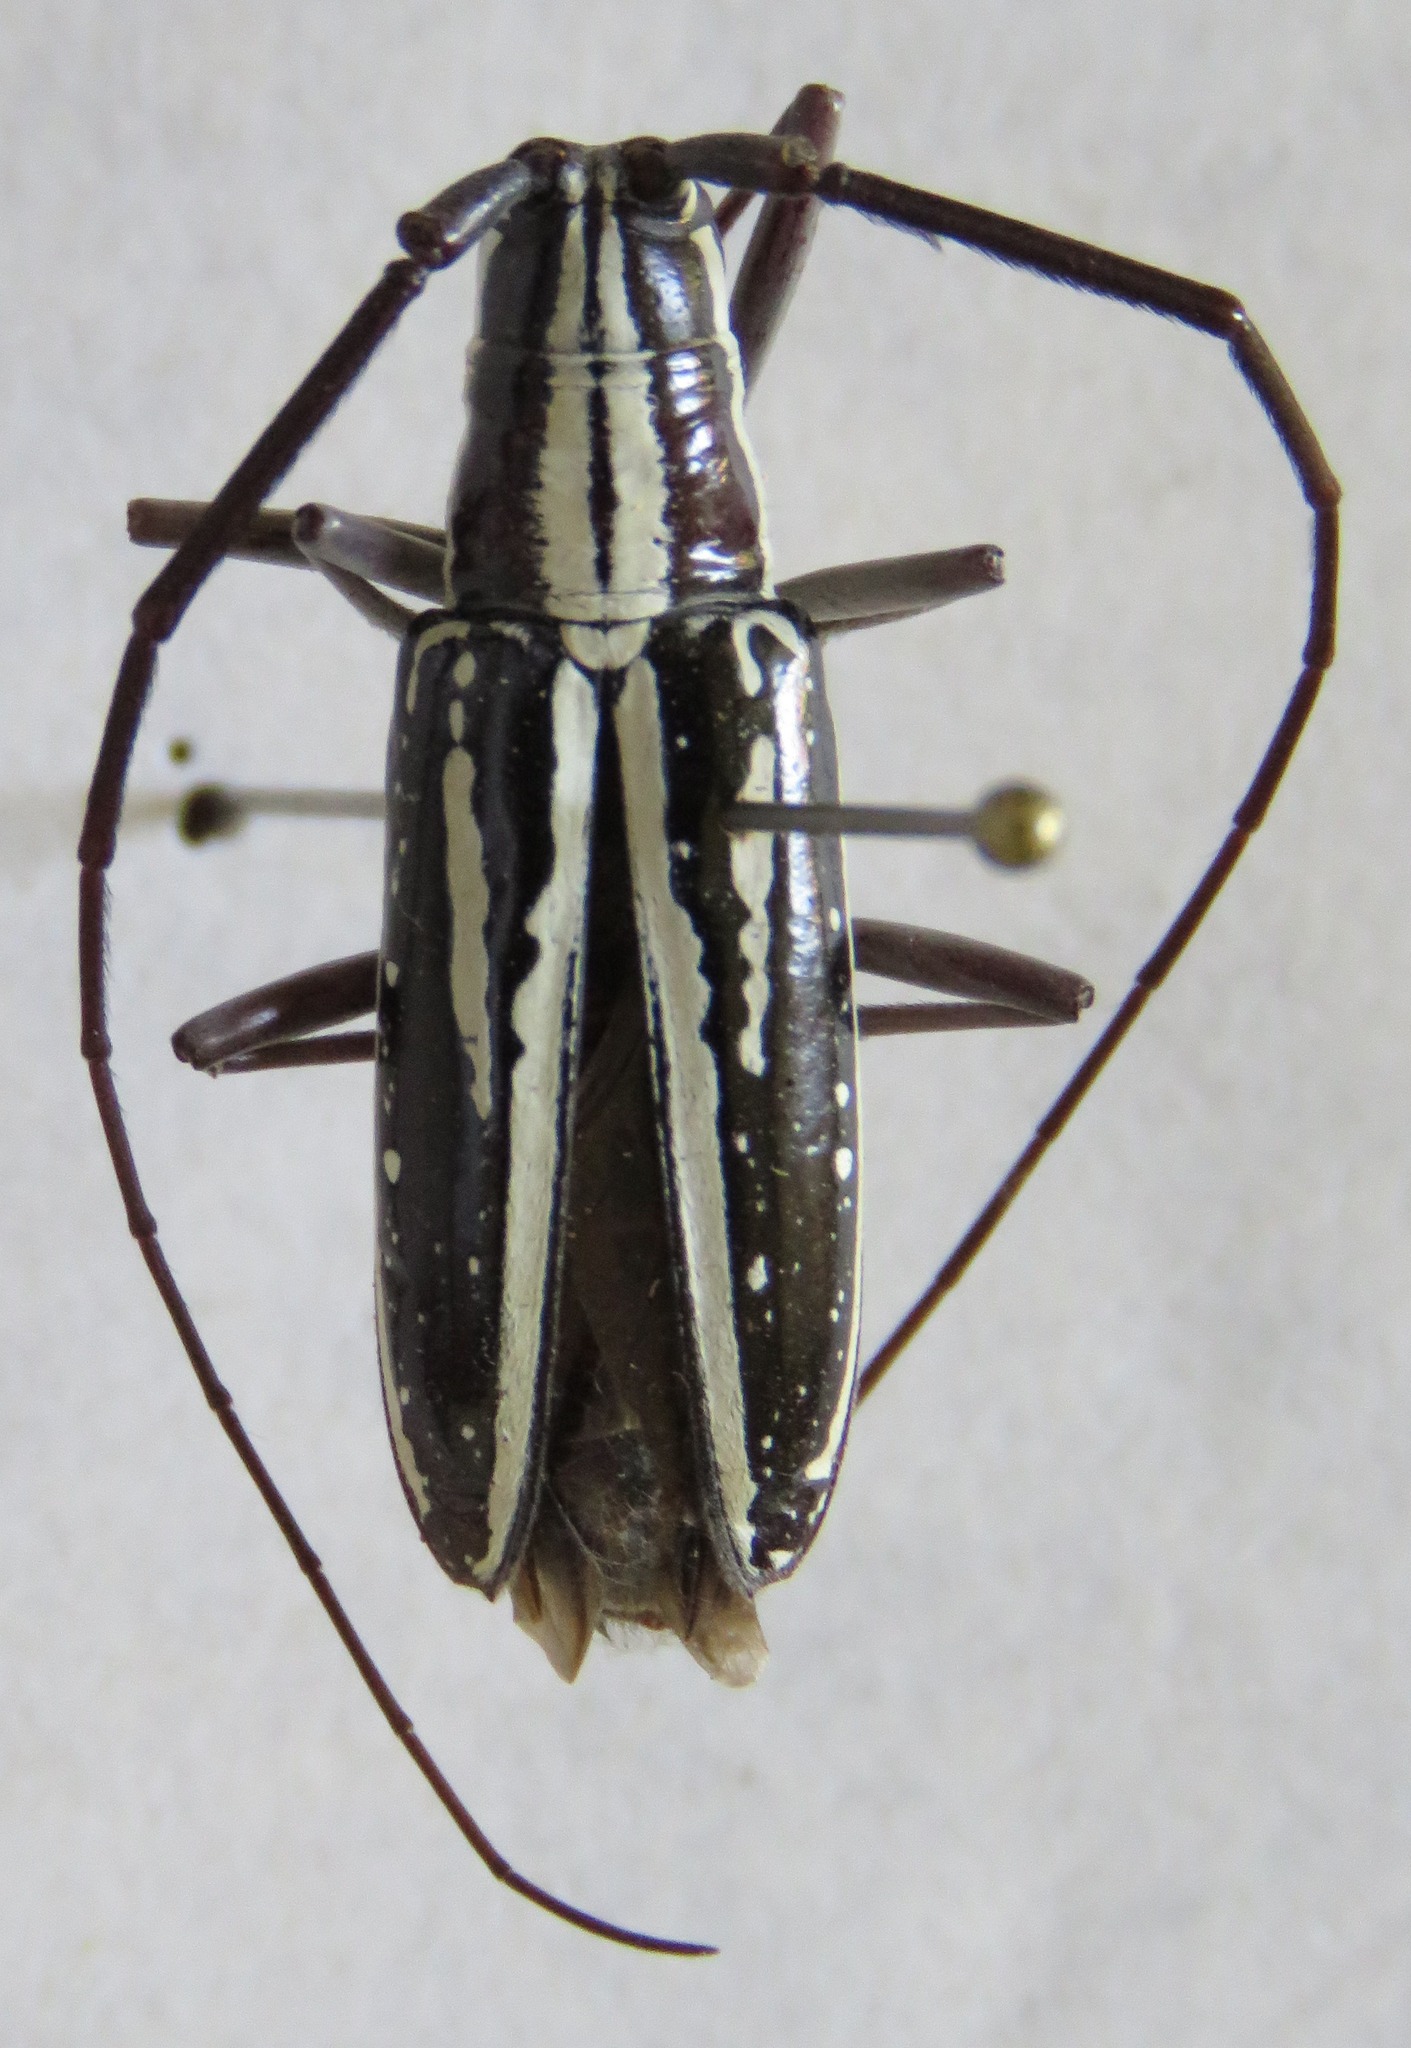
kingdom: Animalia
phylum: Arthropoda
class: Insecta
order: Coleoptera
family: Cerambycidae
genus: Ptychodes
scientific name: Ptychodes politus
